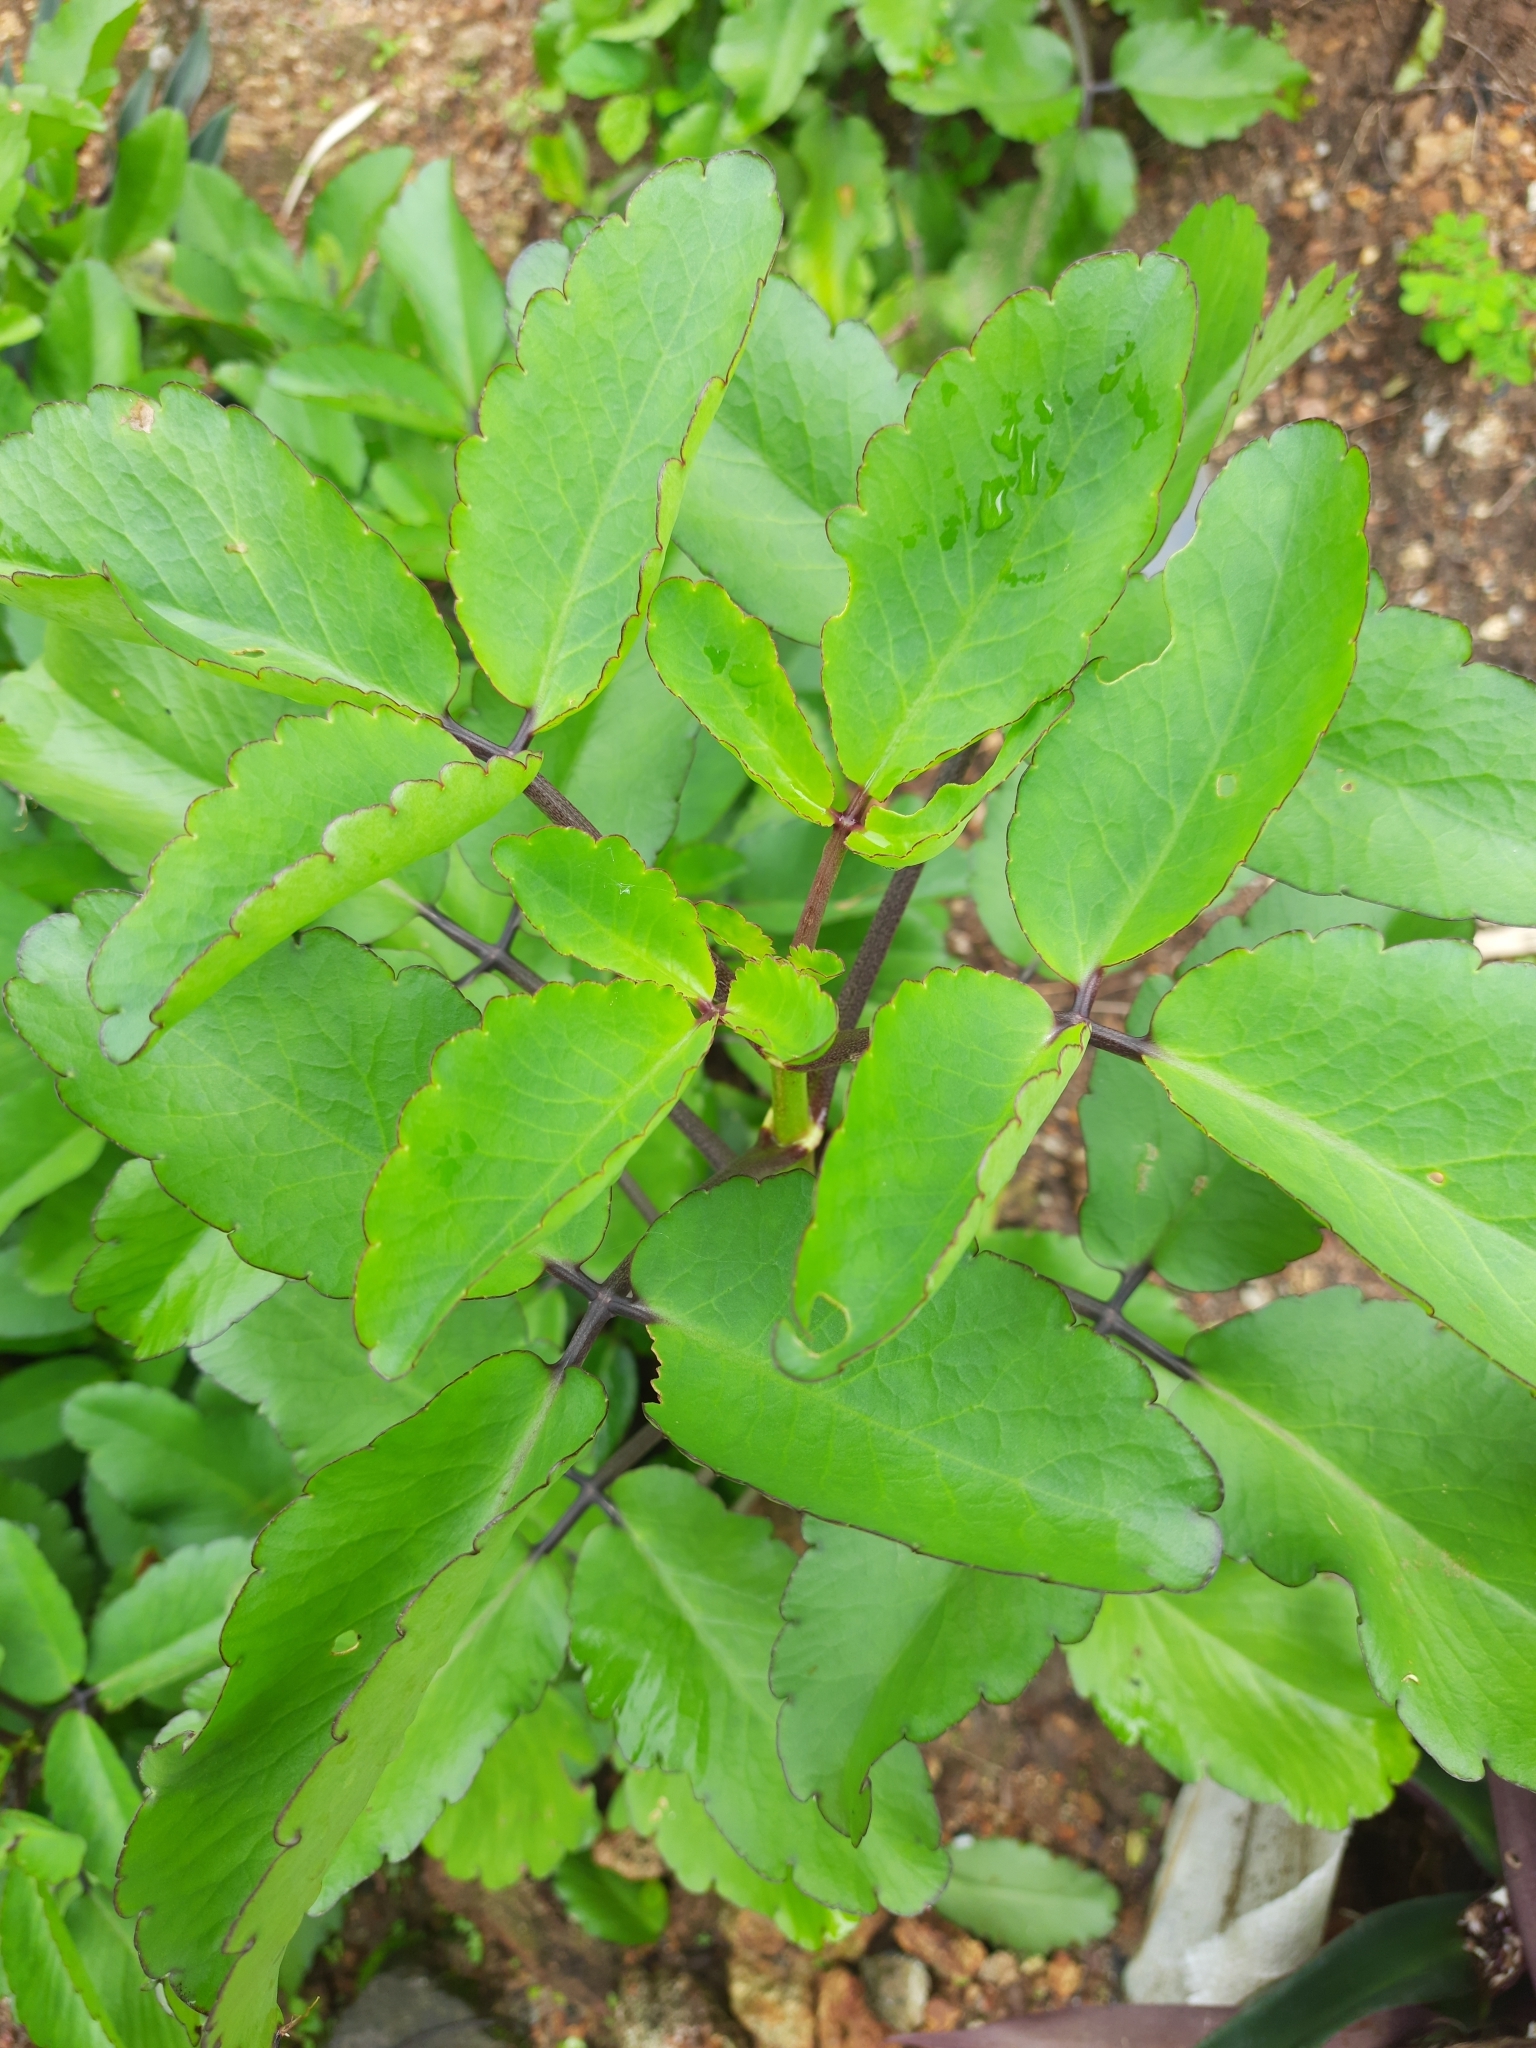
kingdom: Plantae
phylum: Tracheophyta
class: Magnoliopsida
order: Saxifragales
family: Crassulaceae
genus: Kalanchoe
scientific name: Kalanchoe pinnata
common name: Cathedral bells
